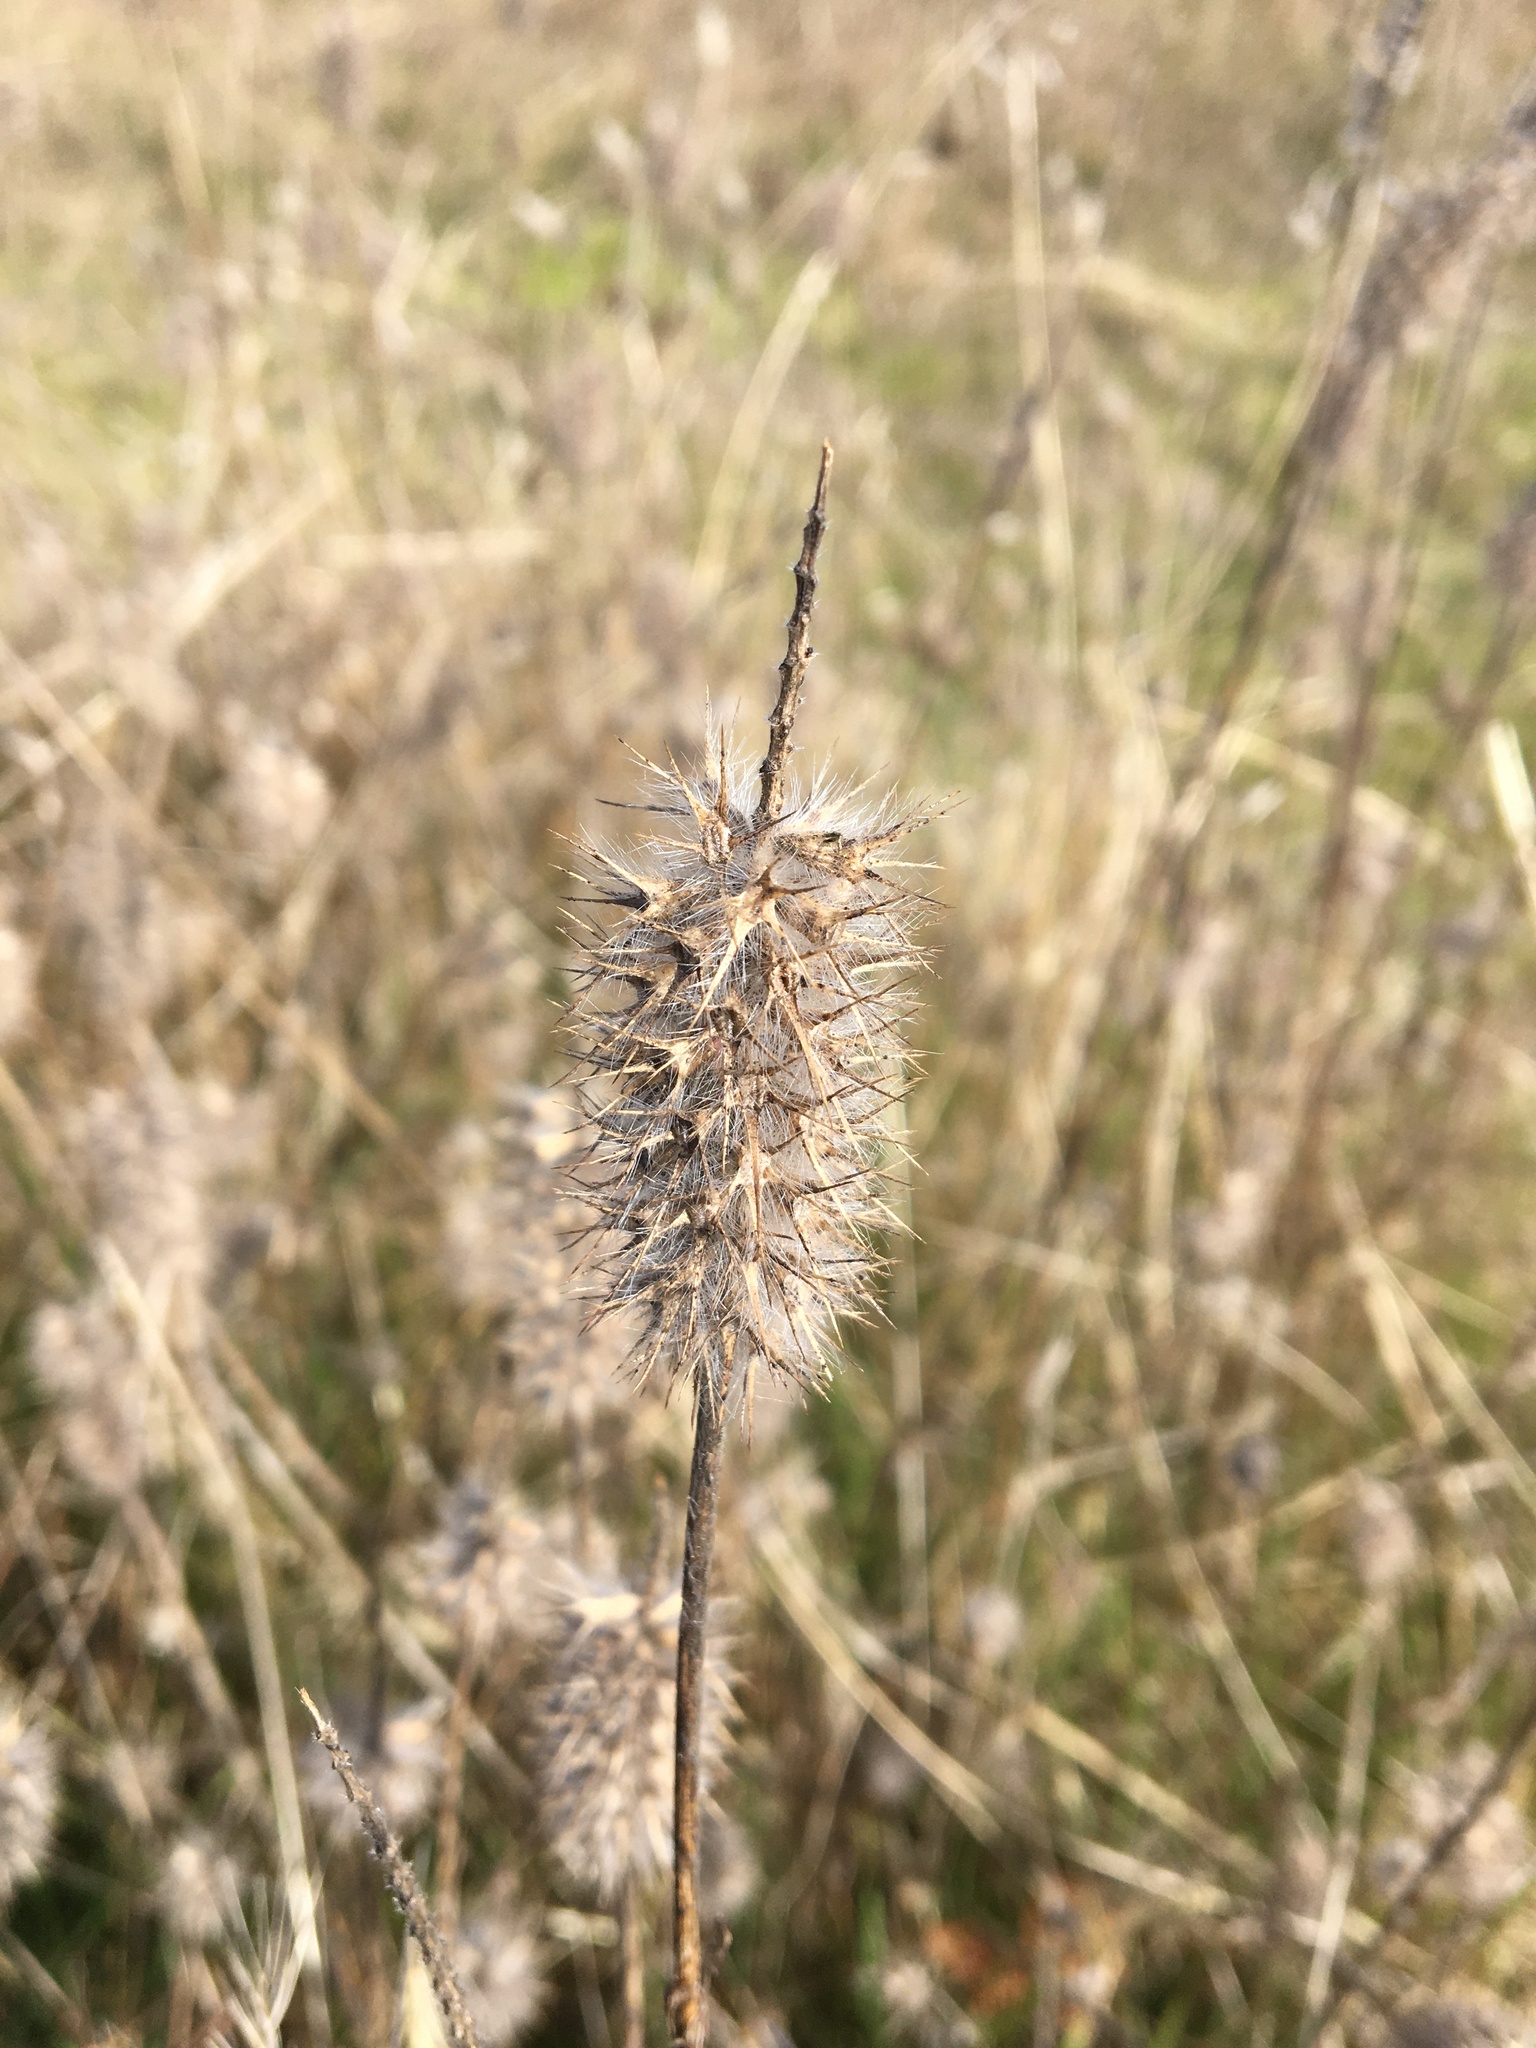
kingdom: Plantae
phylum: Tracheophyta
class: Magnoliopsida
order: Fabales
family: Fabaceae
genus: Trifolium
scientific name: Trifolium angustifolium
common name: Narrow clover
